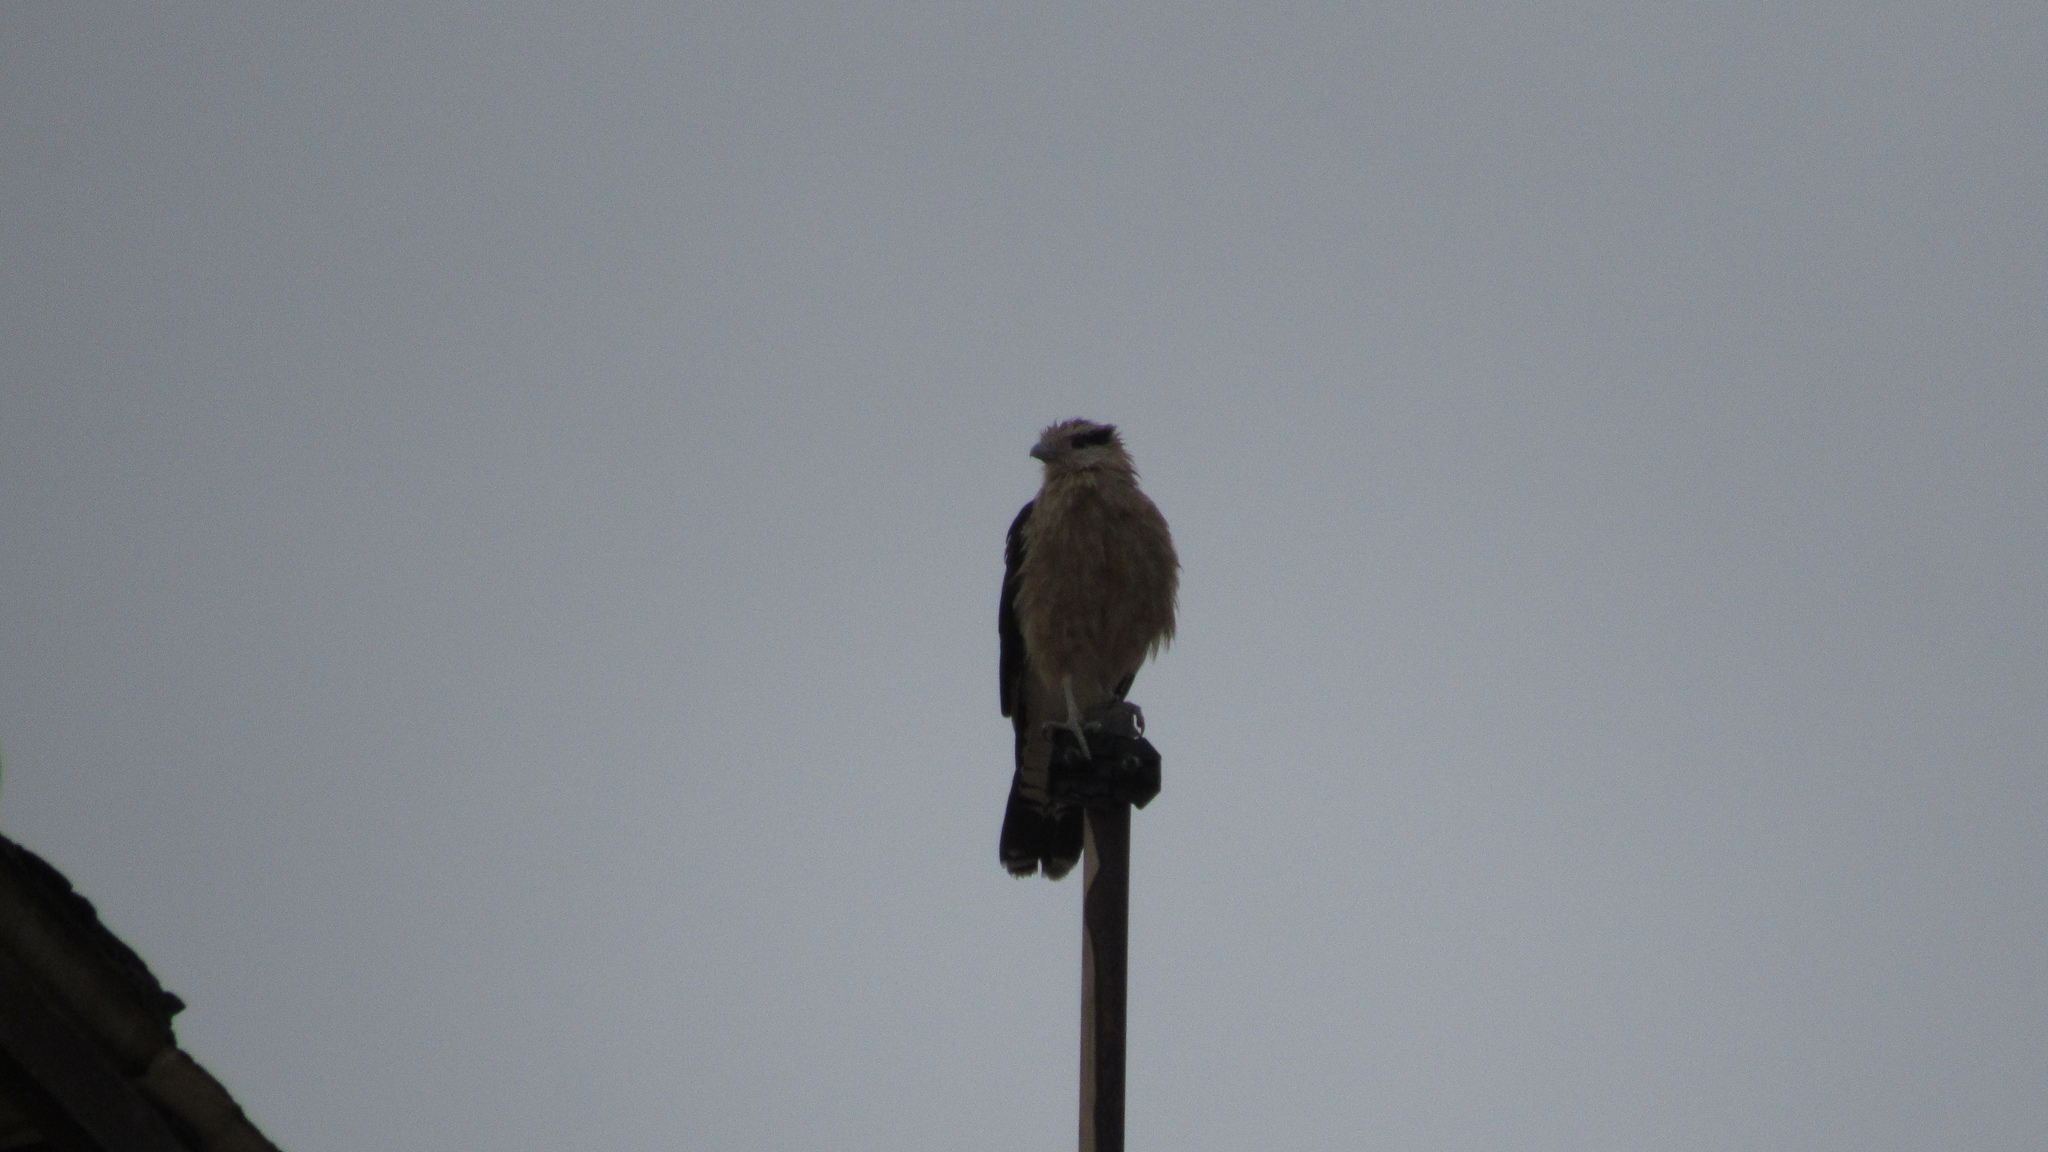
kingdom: Animalia
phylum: Chordata
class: Aves
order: Falconiformes
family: Falconidae
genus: Daptrius
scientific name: Daptrius
